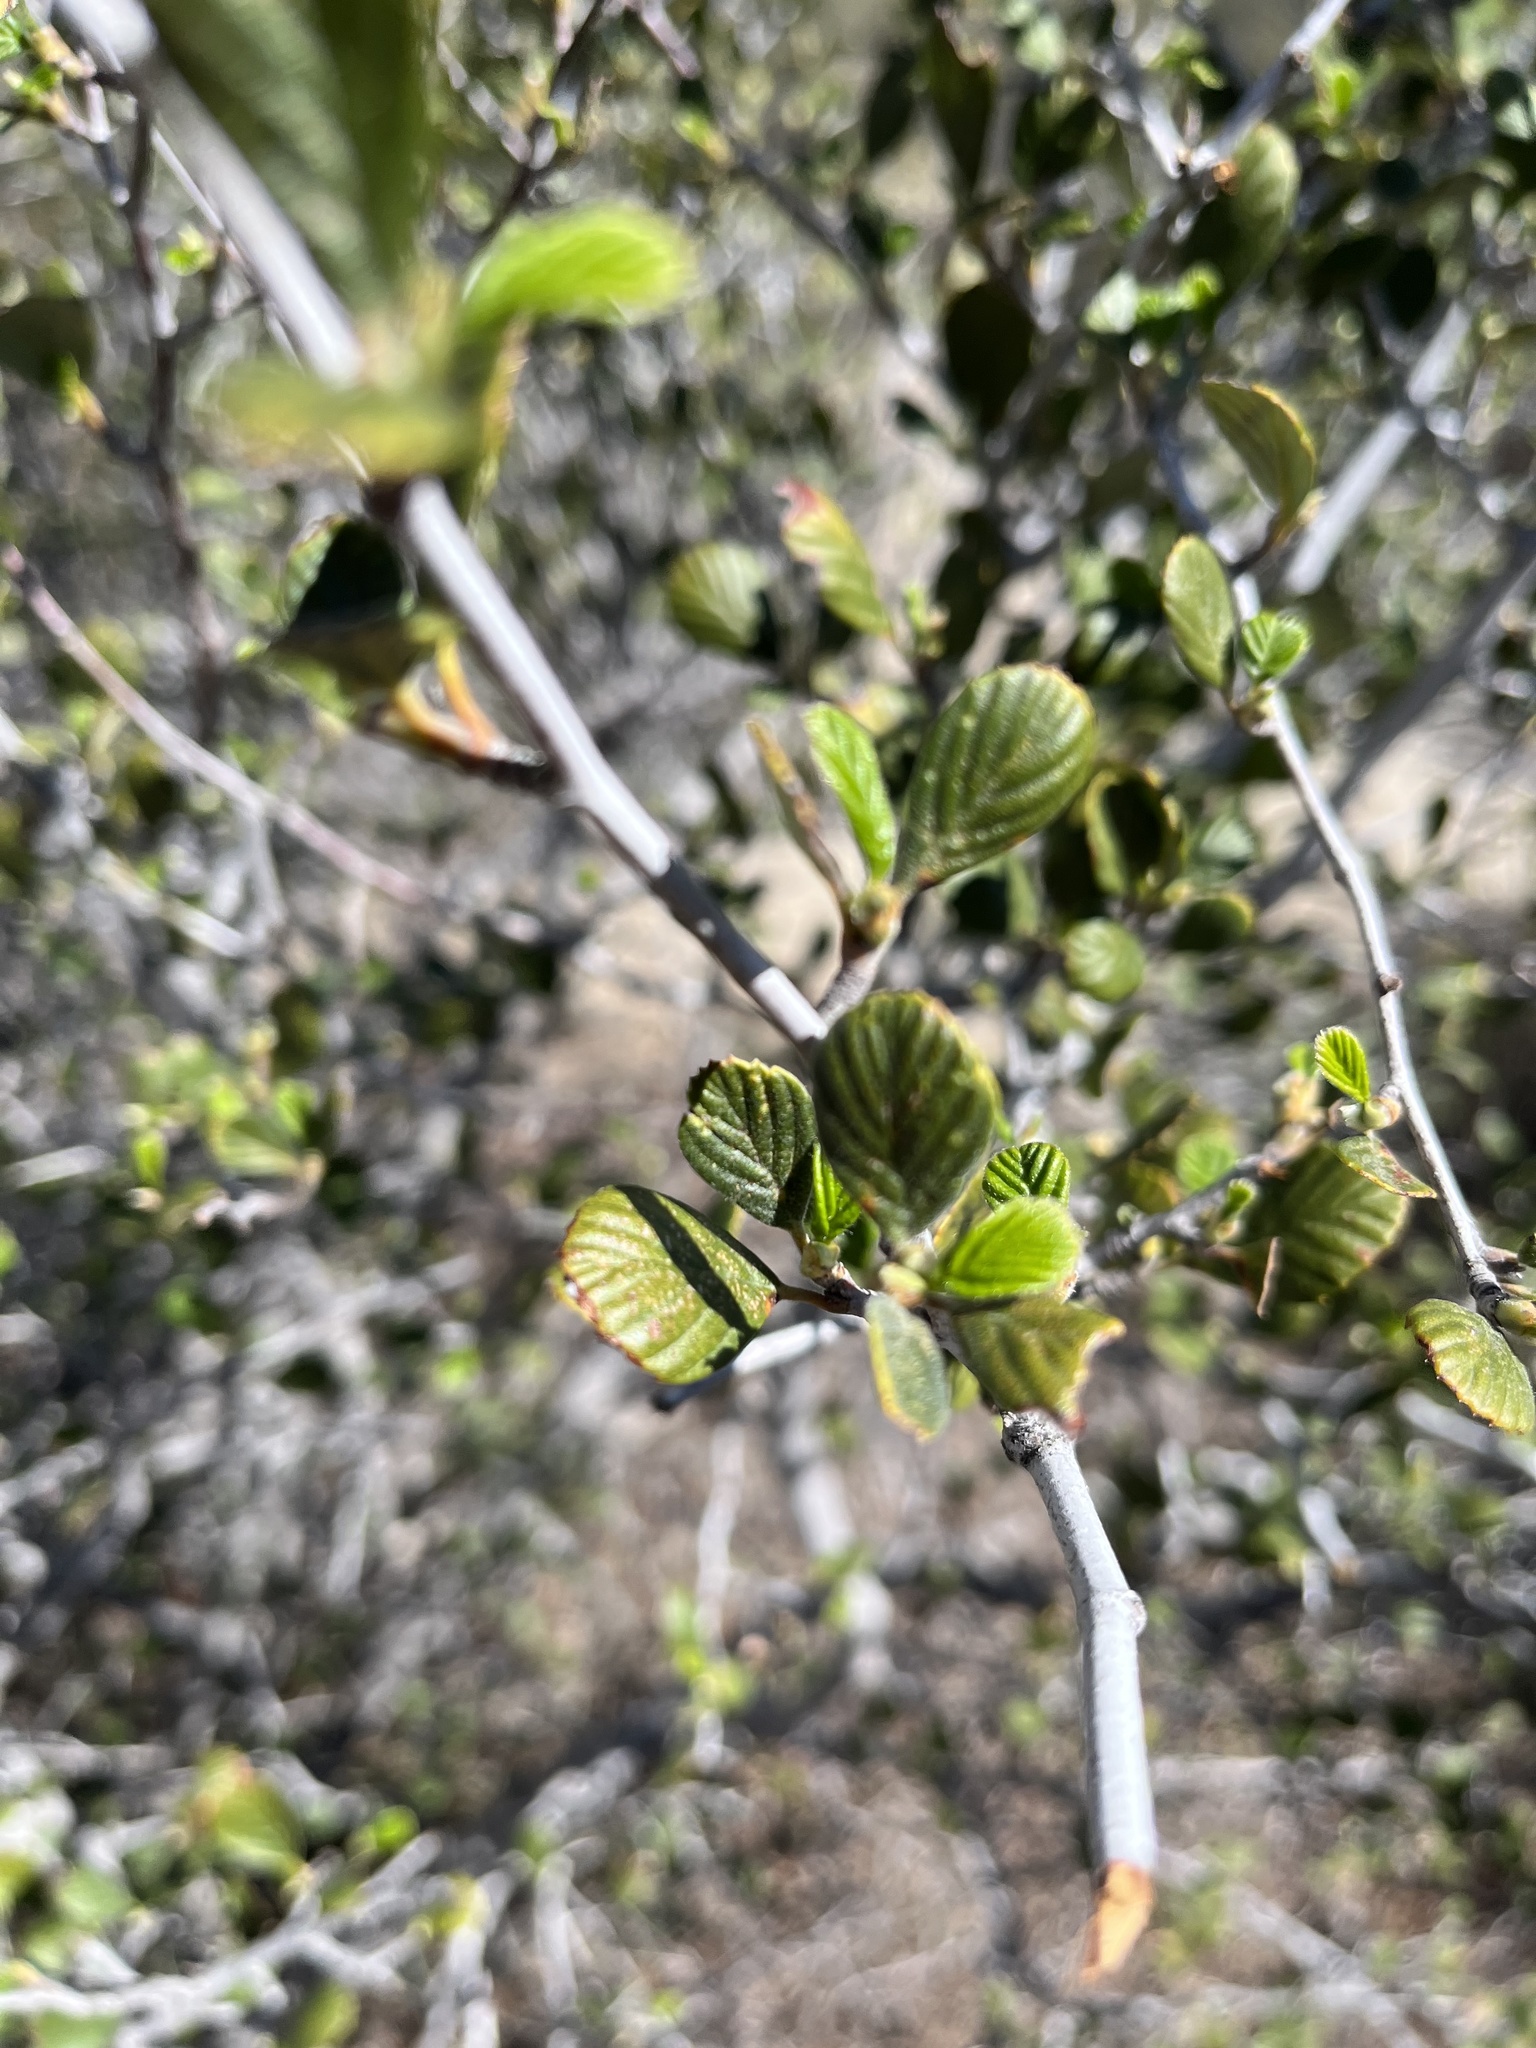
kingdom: Plantae
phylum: Tracheophyta
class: Magnoliopsida
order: Rosales
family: Rosaceae
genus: Cercocarpus
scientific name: Cercocarpus betuloides
